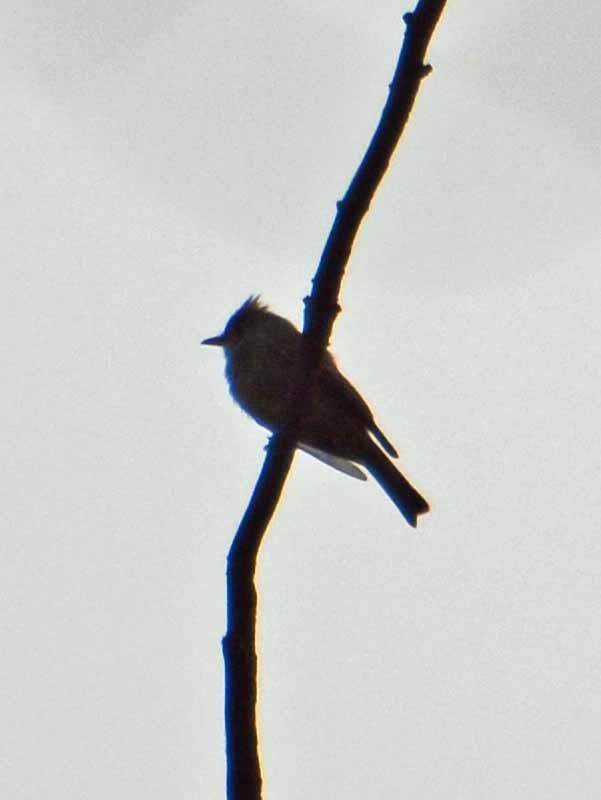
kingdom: Animalia
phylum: Chordata
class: Aves
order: Passeriformes
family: Tyrannidae
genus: Contopus
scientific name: Contopus pertinax
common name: Greater pewee
